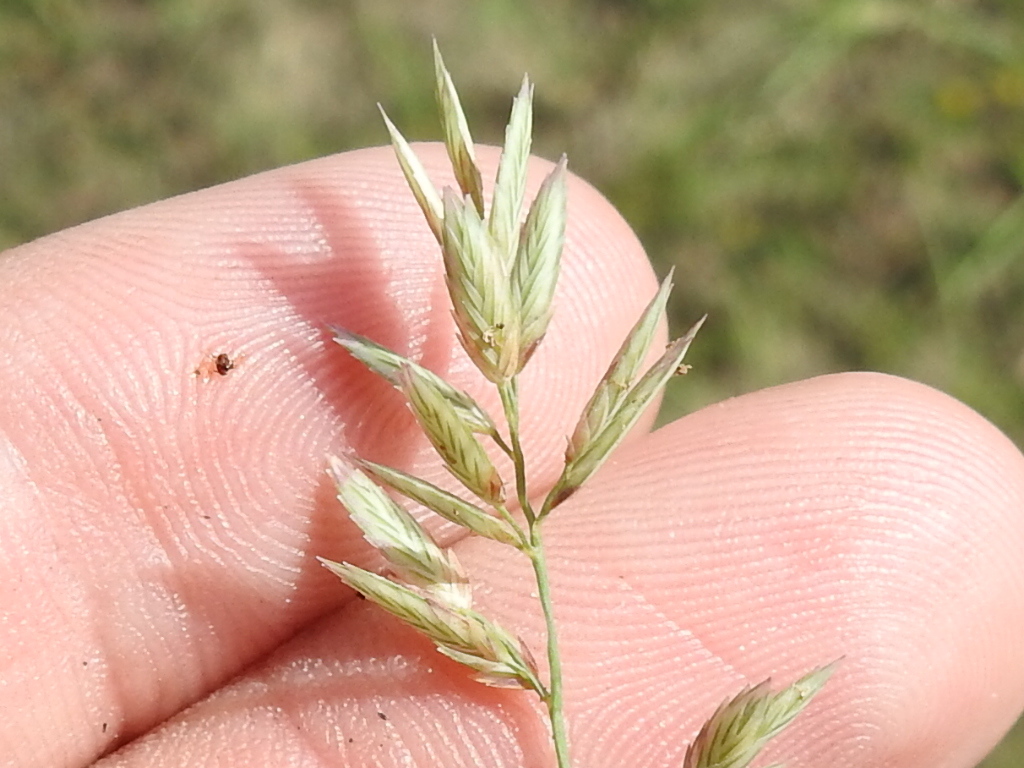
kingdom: Plantae
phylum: Tracheophyta
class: Liliopsida
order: Poales
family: Poaceae
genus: Eragrostis
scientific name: Eragrostis secundiflora
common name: Red love grass
